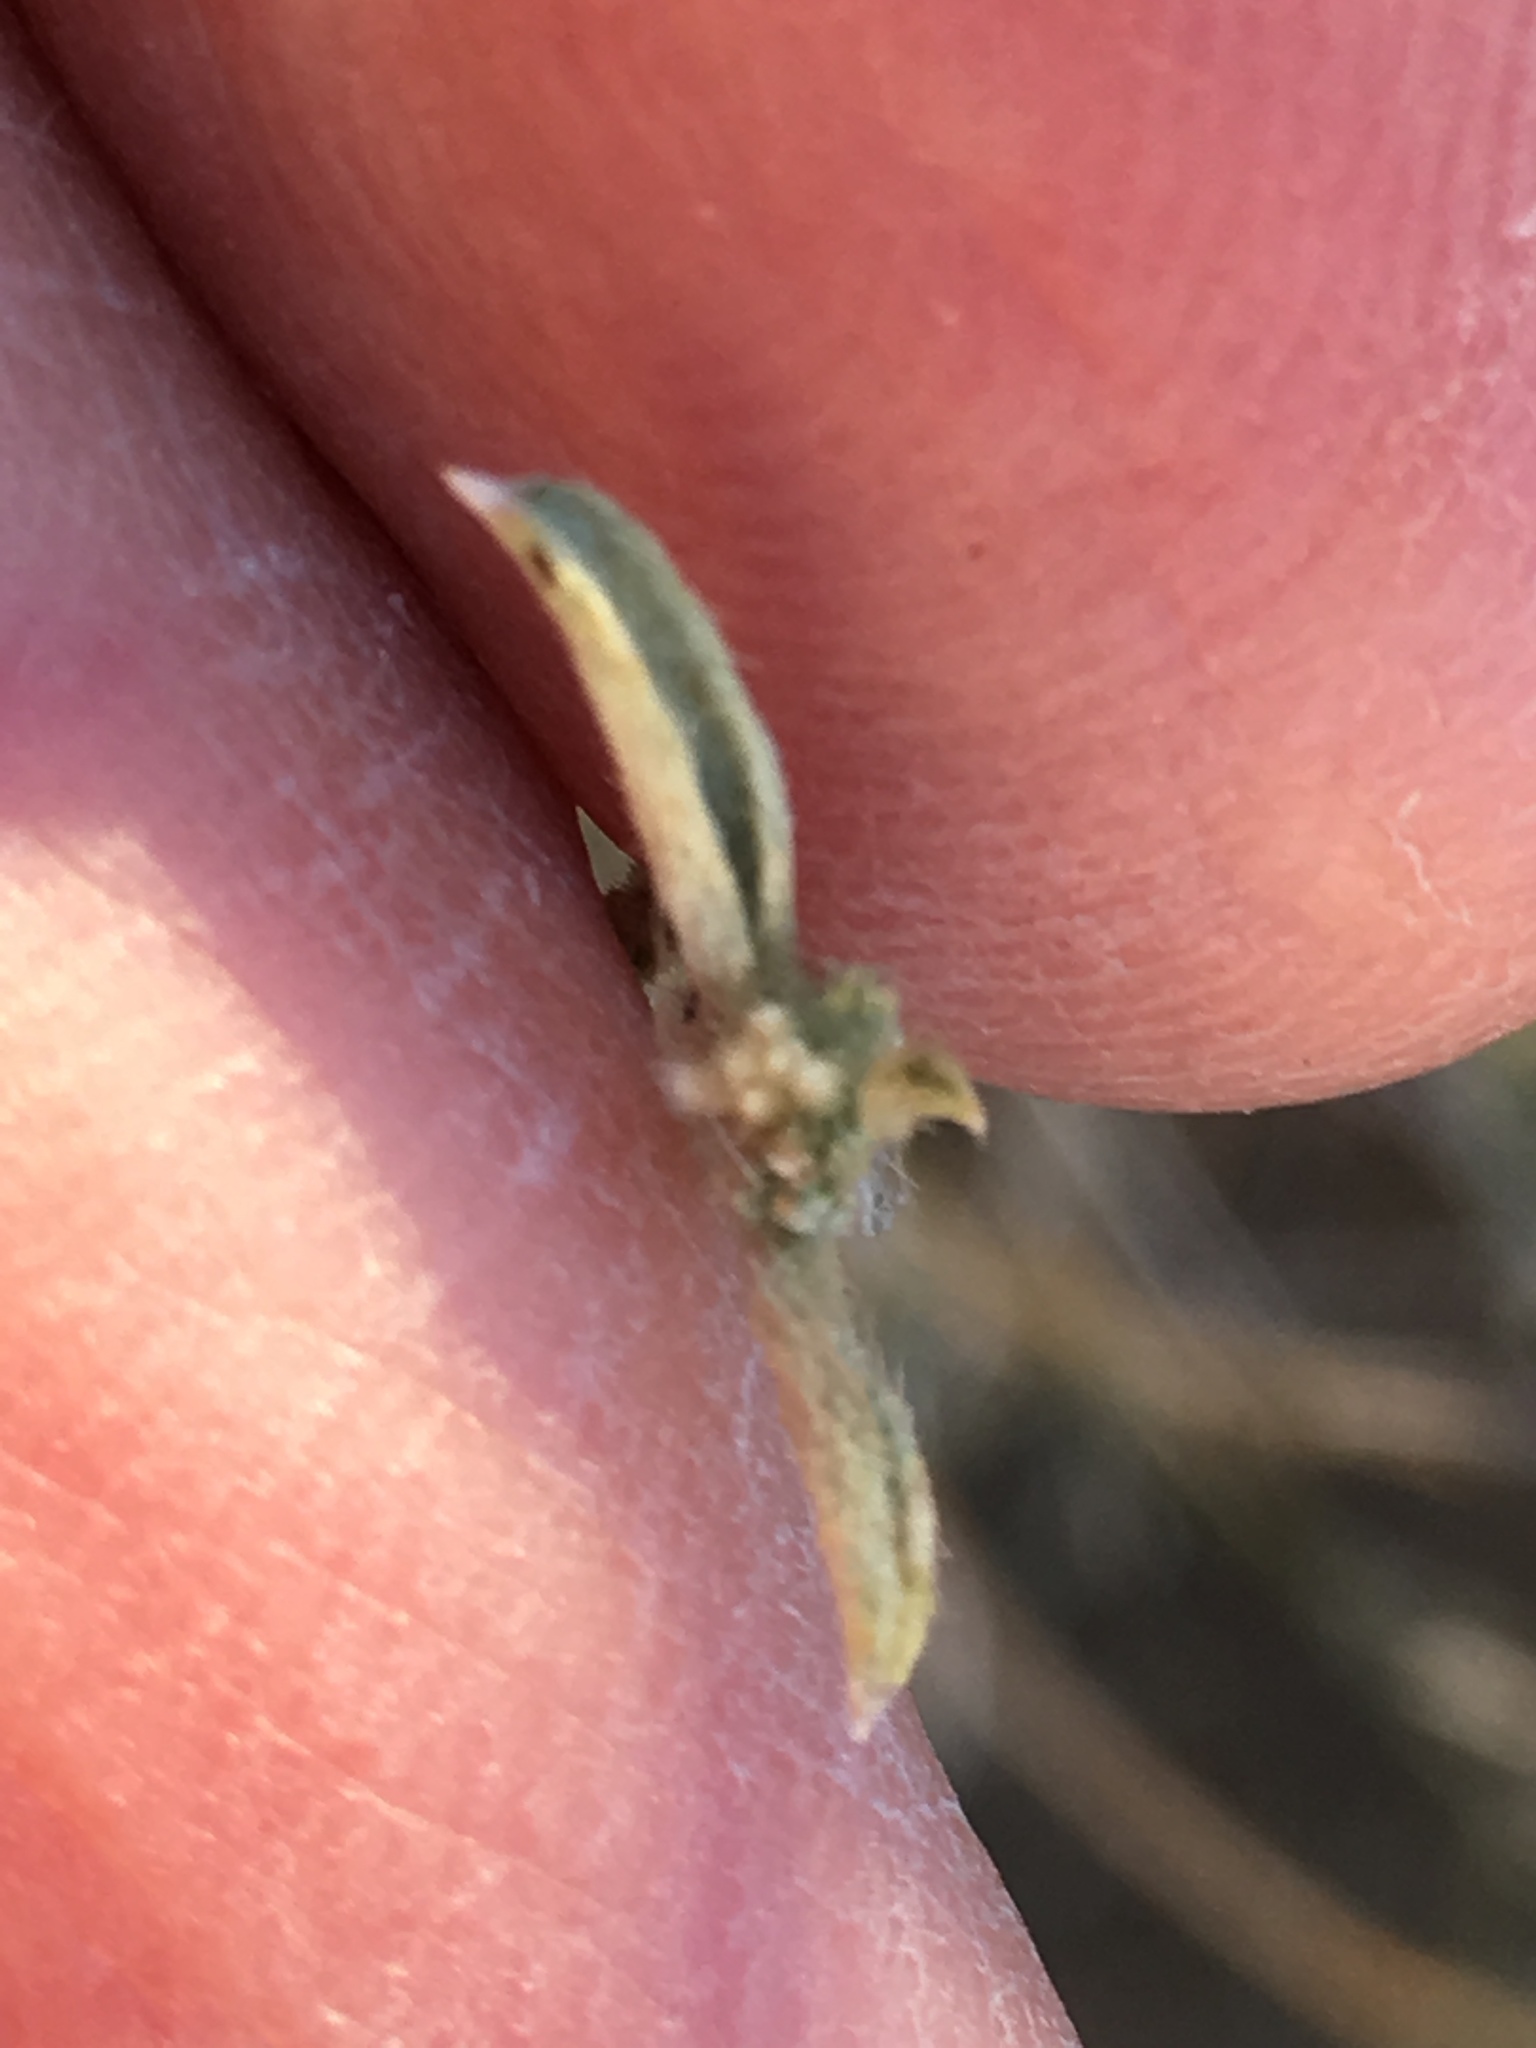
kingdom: Plantae
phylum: Tracheophyta
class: Magnoliopsida
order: Malpighiales
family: Euphorbiaceae
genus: Ditaxis
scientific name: Ditaxis lanceolata
